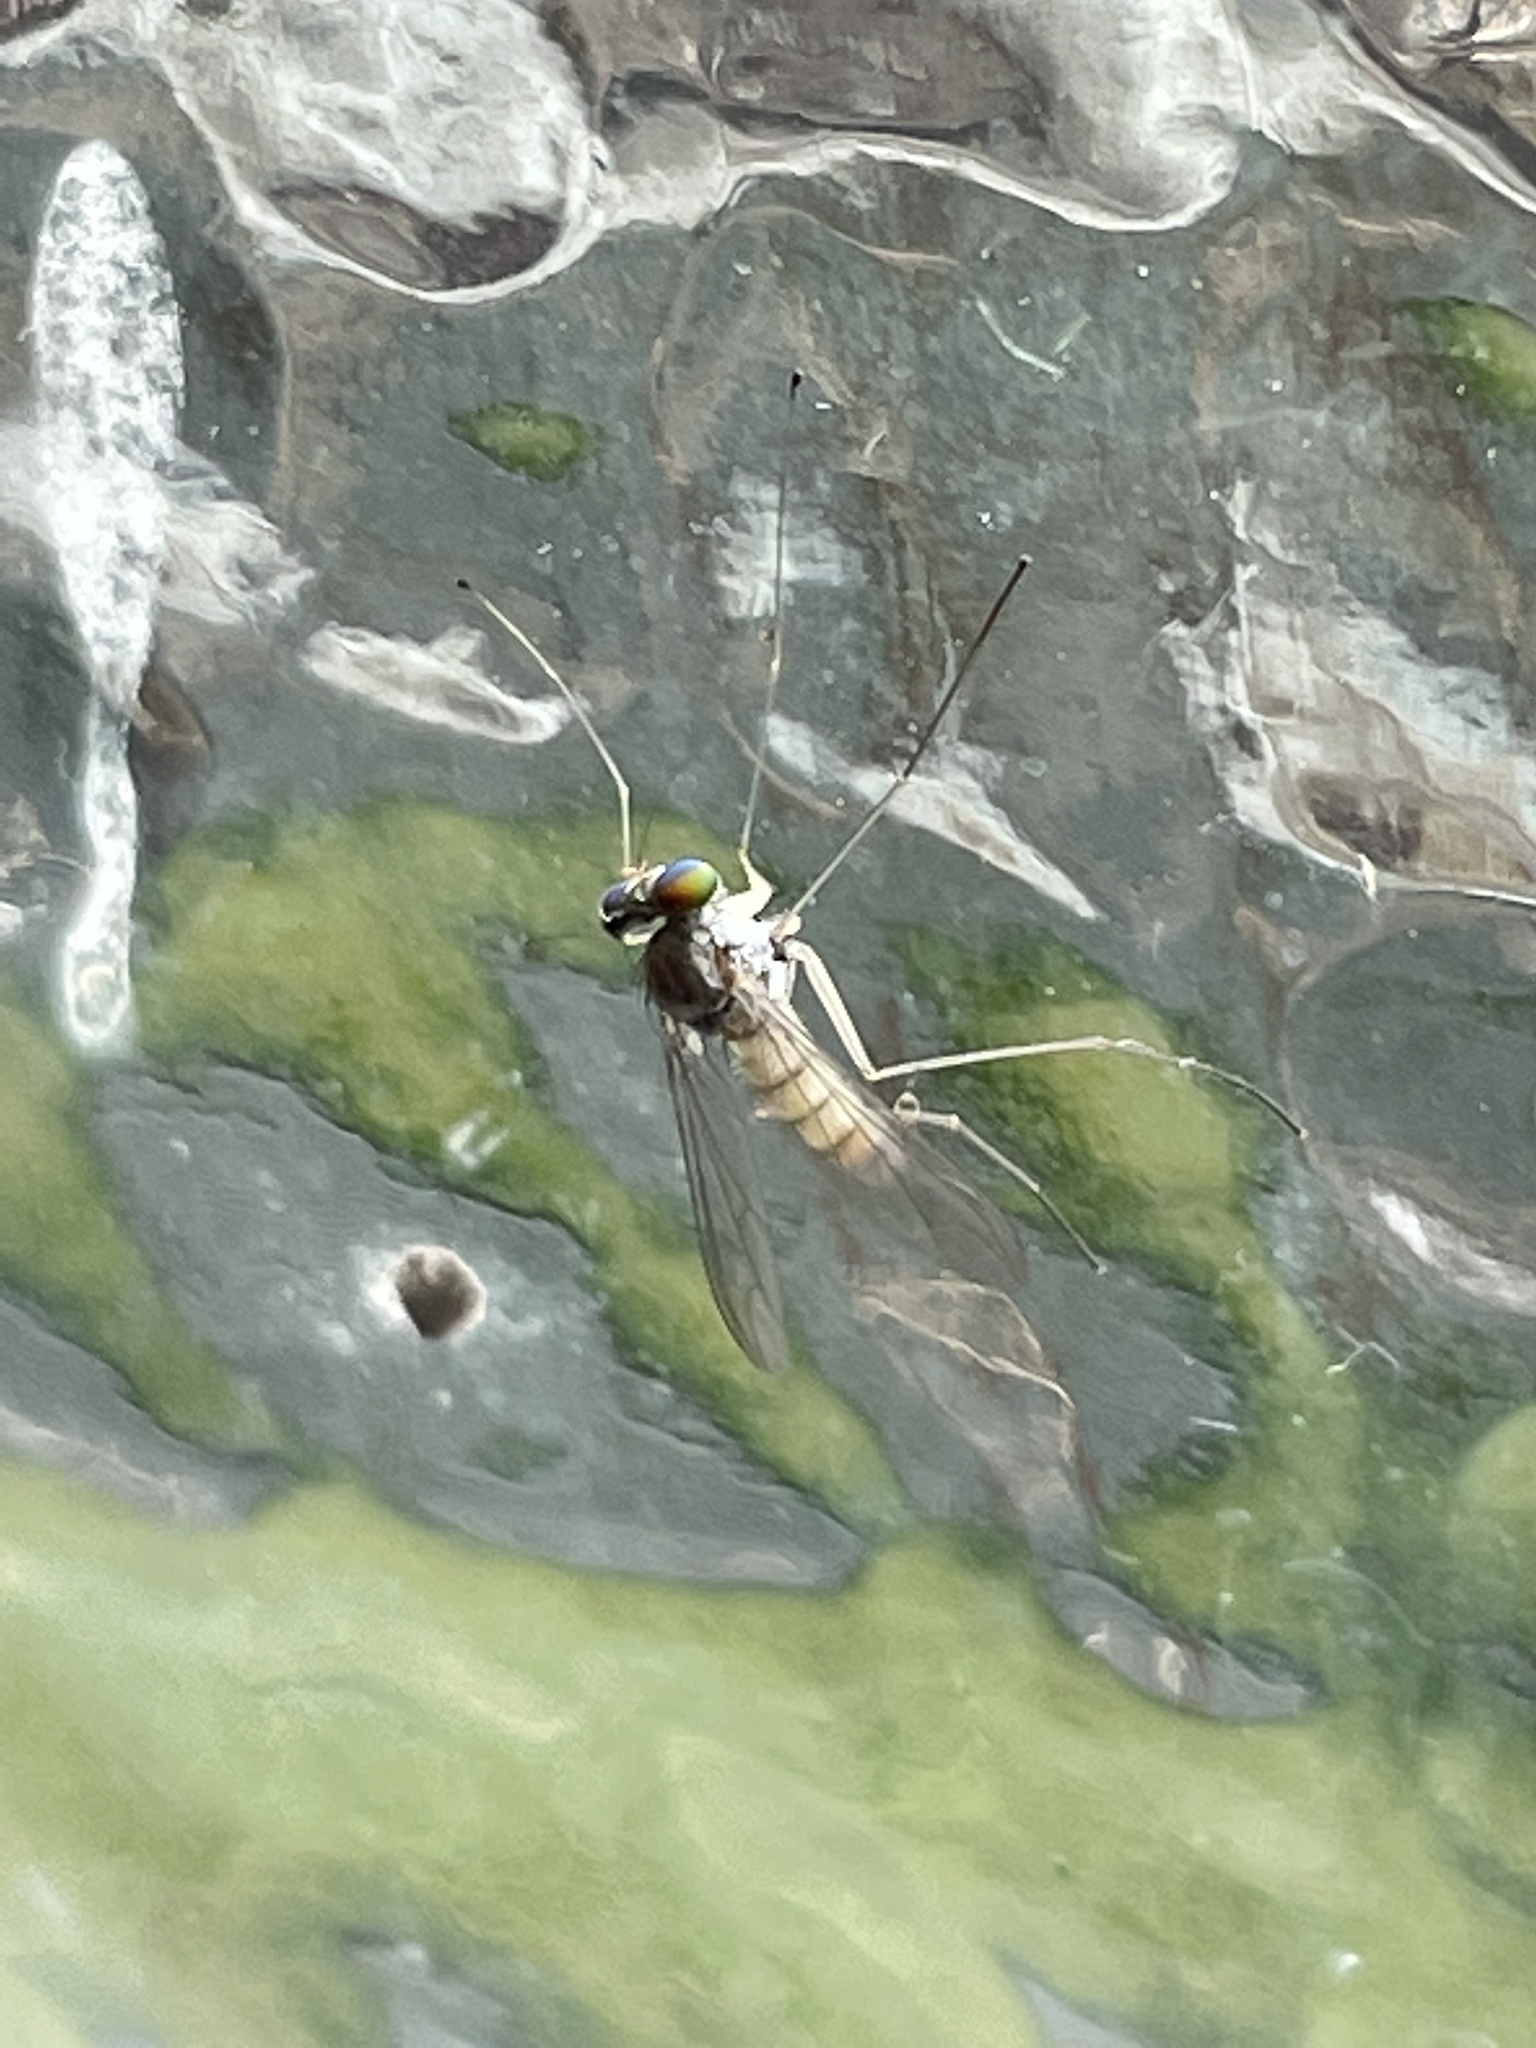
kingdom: Animalia
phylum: Arthropoda
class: Insecta
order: Diptera
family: Dolichopodidae
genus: Amblypsilopus
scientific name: Amblypsilopus triscuticatus
